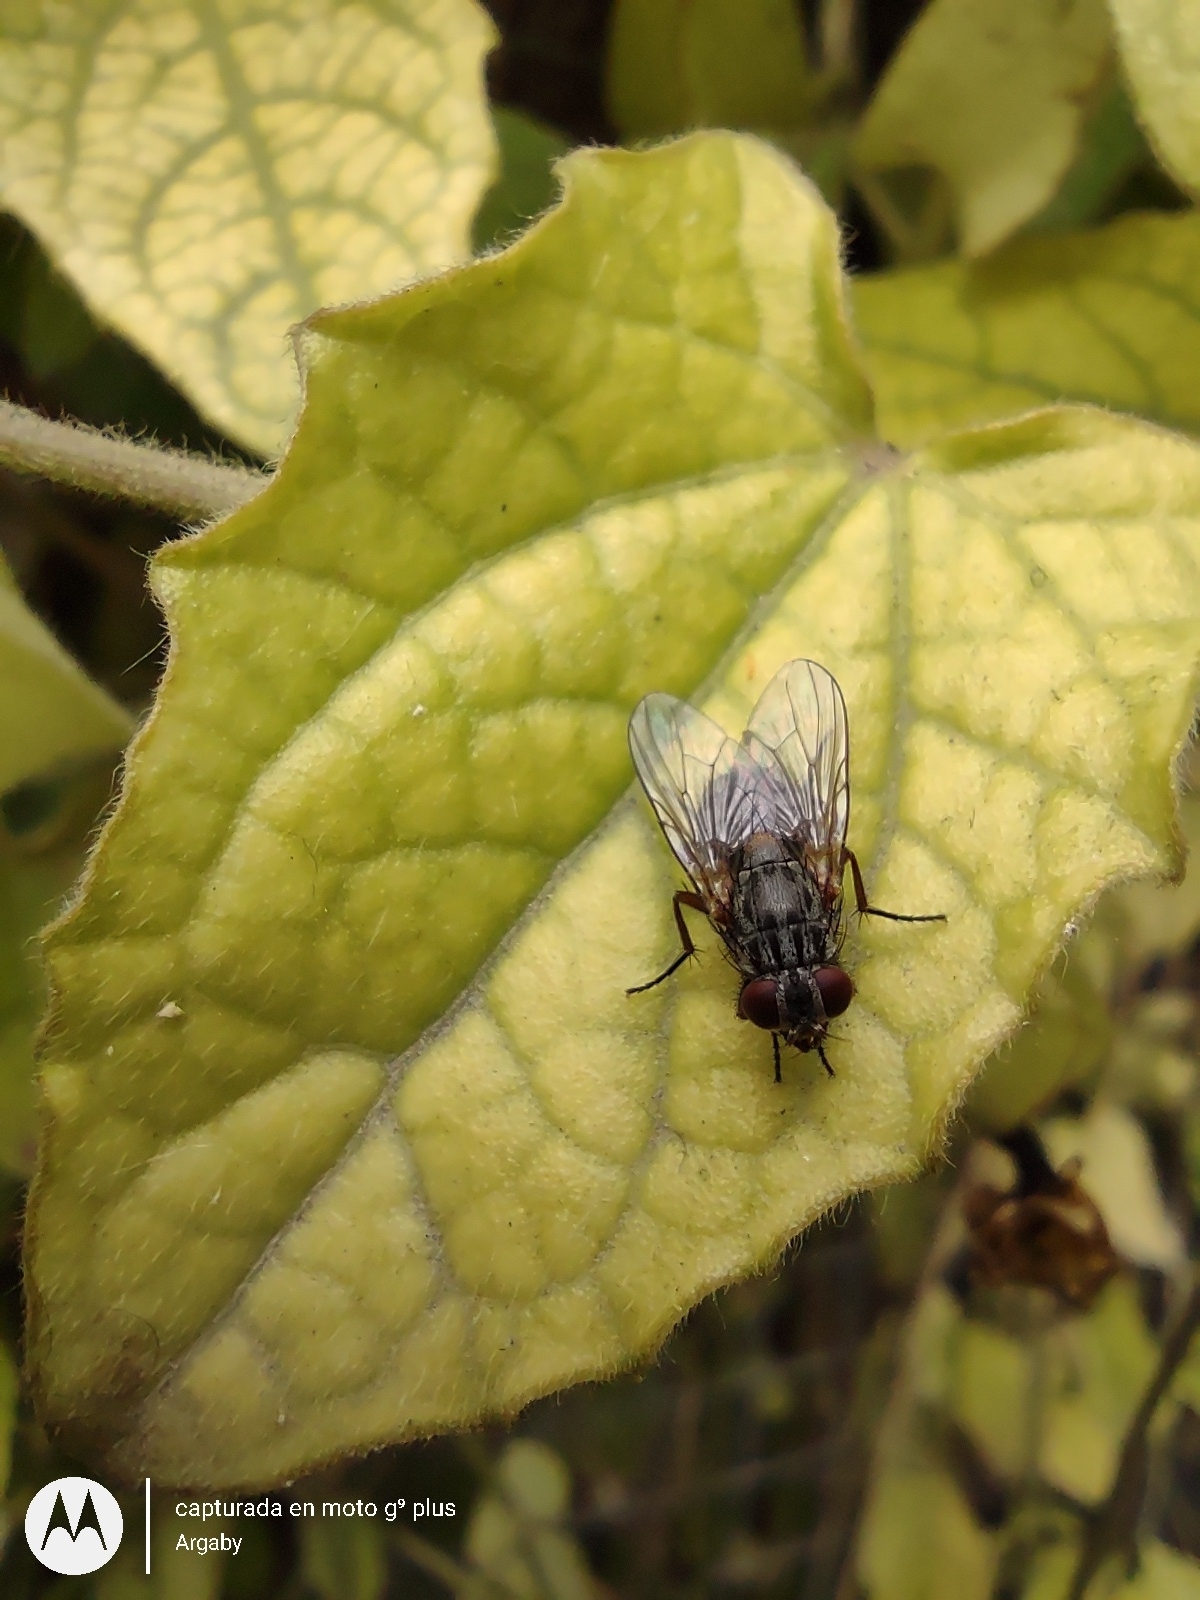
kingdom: Animalia
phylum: Arthropoda
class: Insecta
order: Diptera
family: Muscidae
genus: Muscina
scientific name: Muscina stabulans
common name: False stable fly
